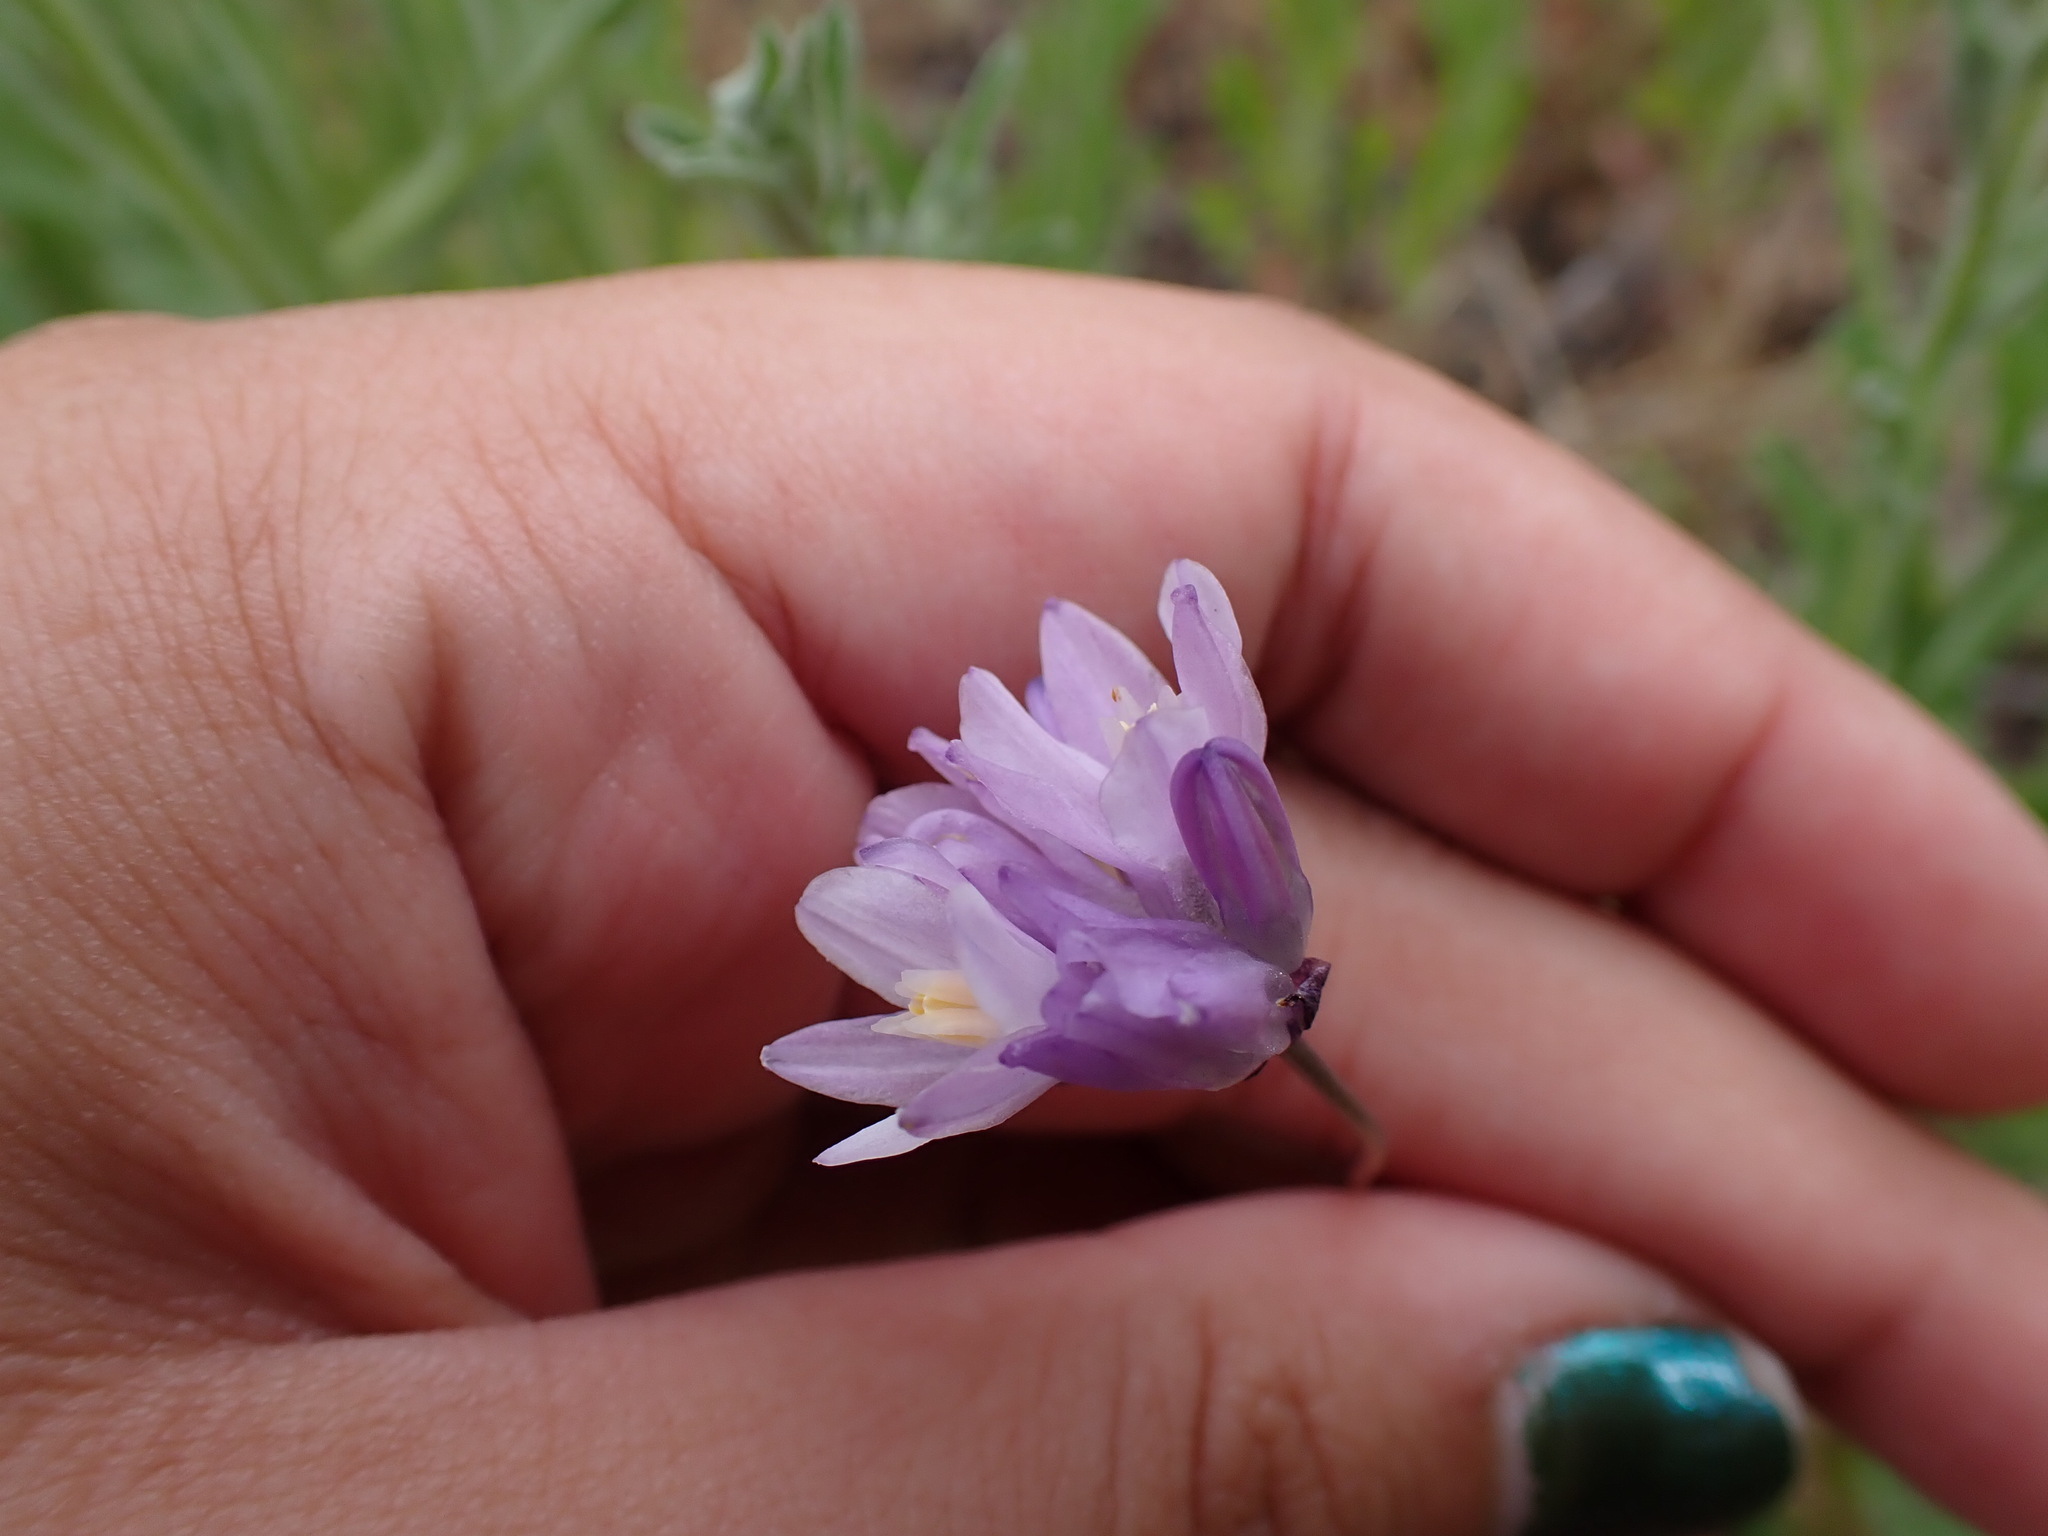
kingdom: Plantae
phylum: Tracheophyta
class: Liliopsida
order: Asparagales
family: Asparagaceae
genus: Dipterostemon
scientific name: Dipterostemon capitatus
